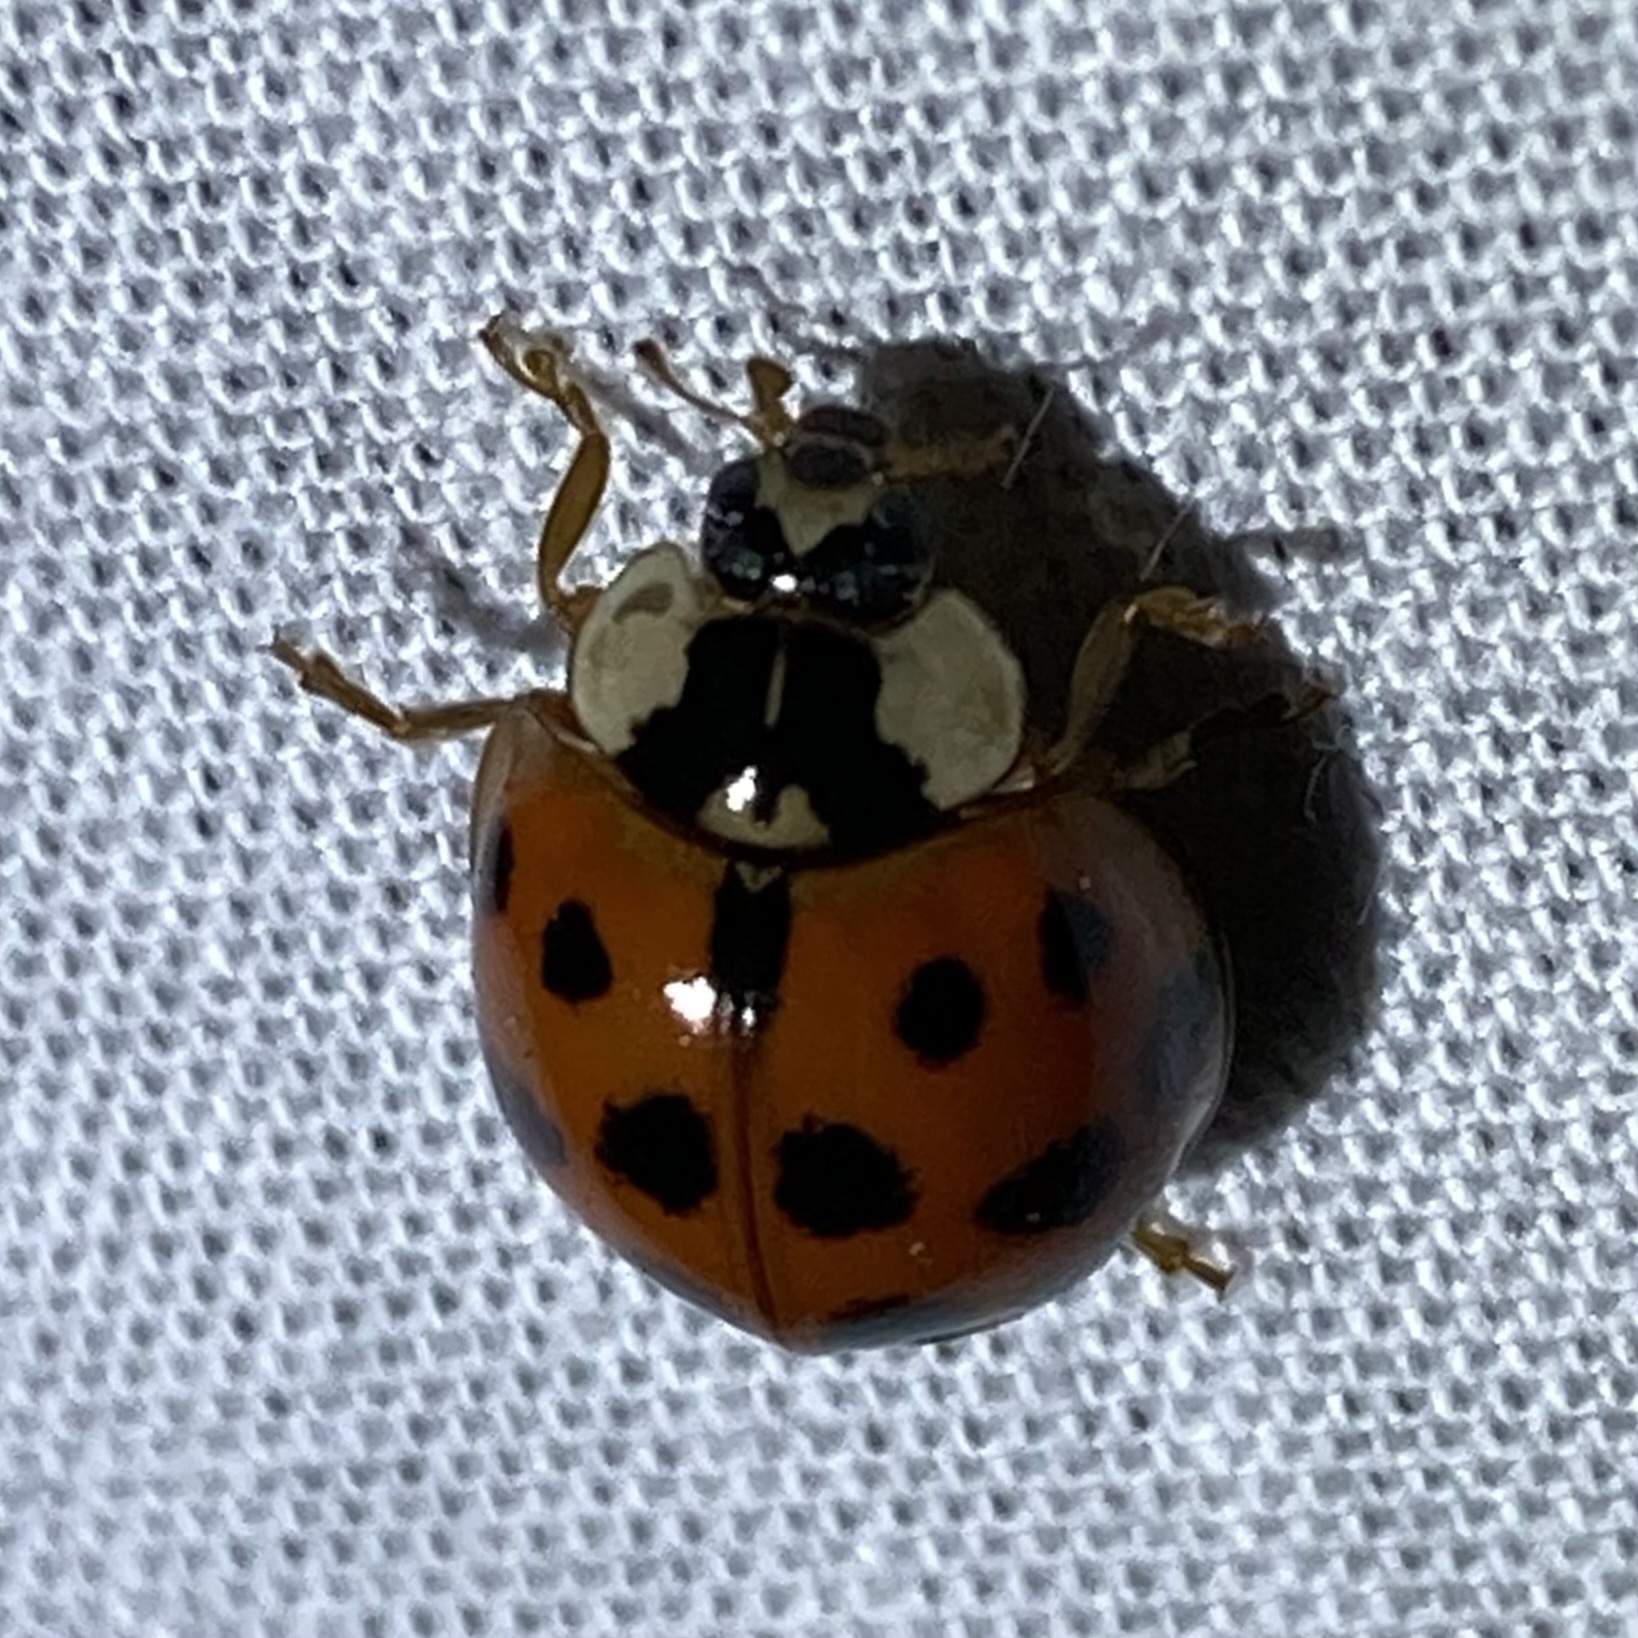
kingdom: Animalia
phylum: Arthropoda
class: Insecta
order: Coleoptera
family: Coccinellidae
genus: Harmonia
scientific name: Harmonia axyridis
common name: Harlequin ladybird
